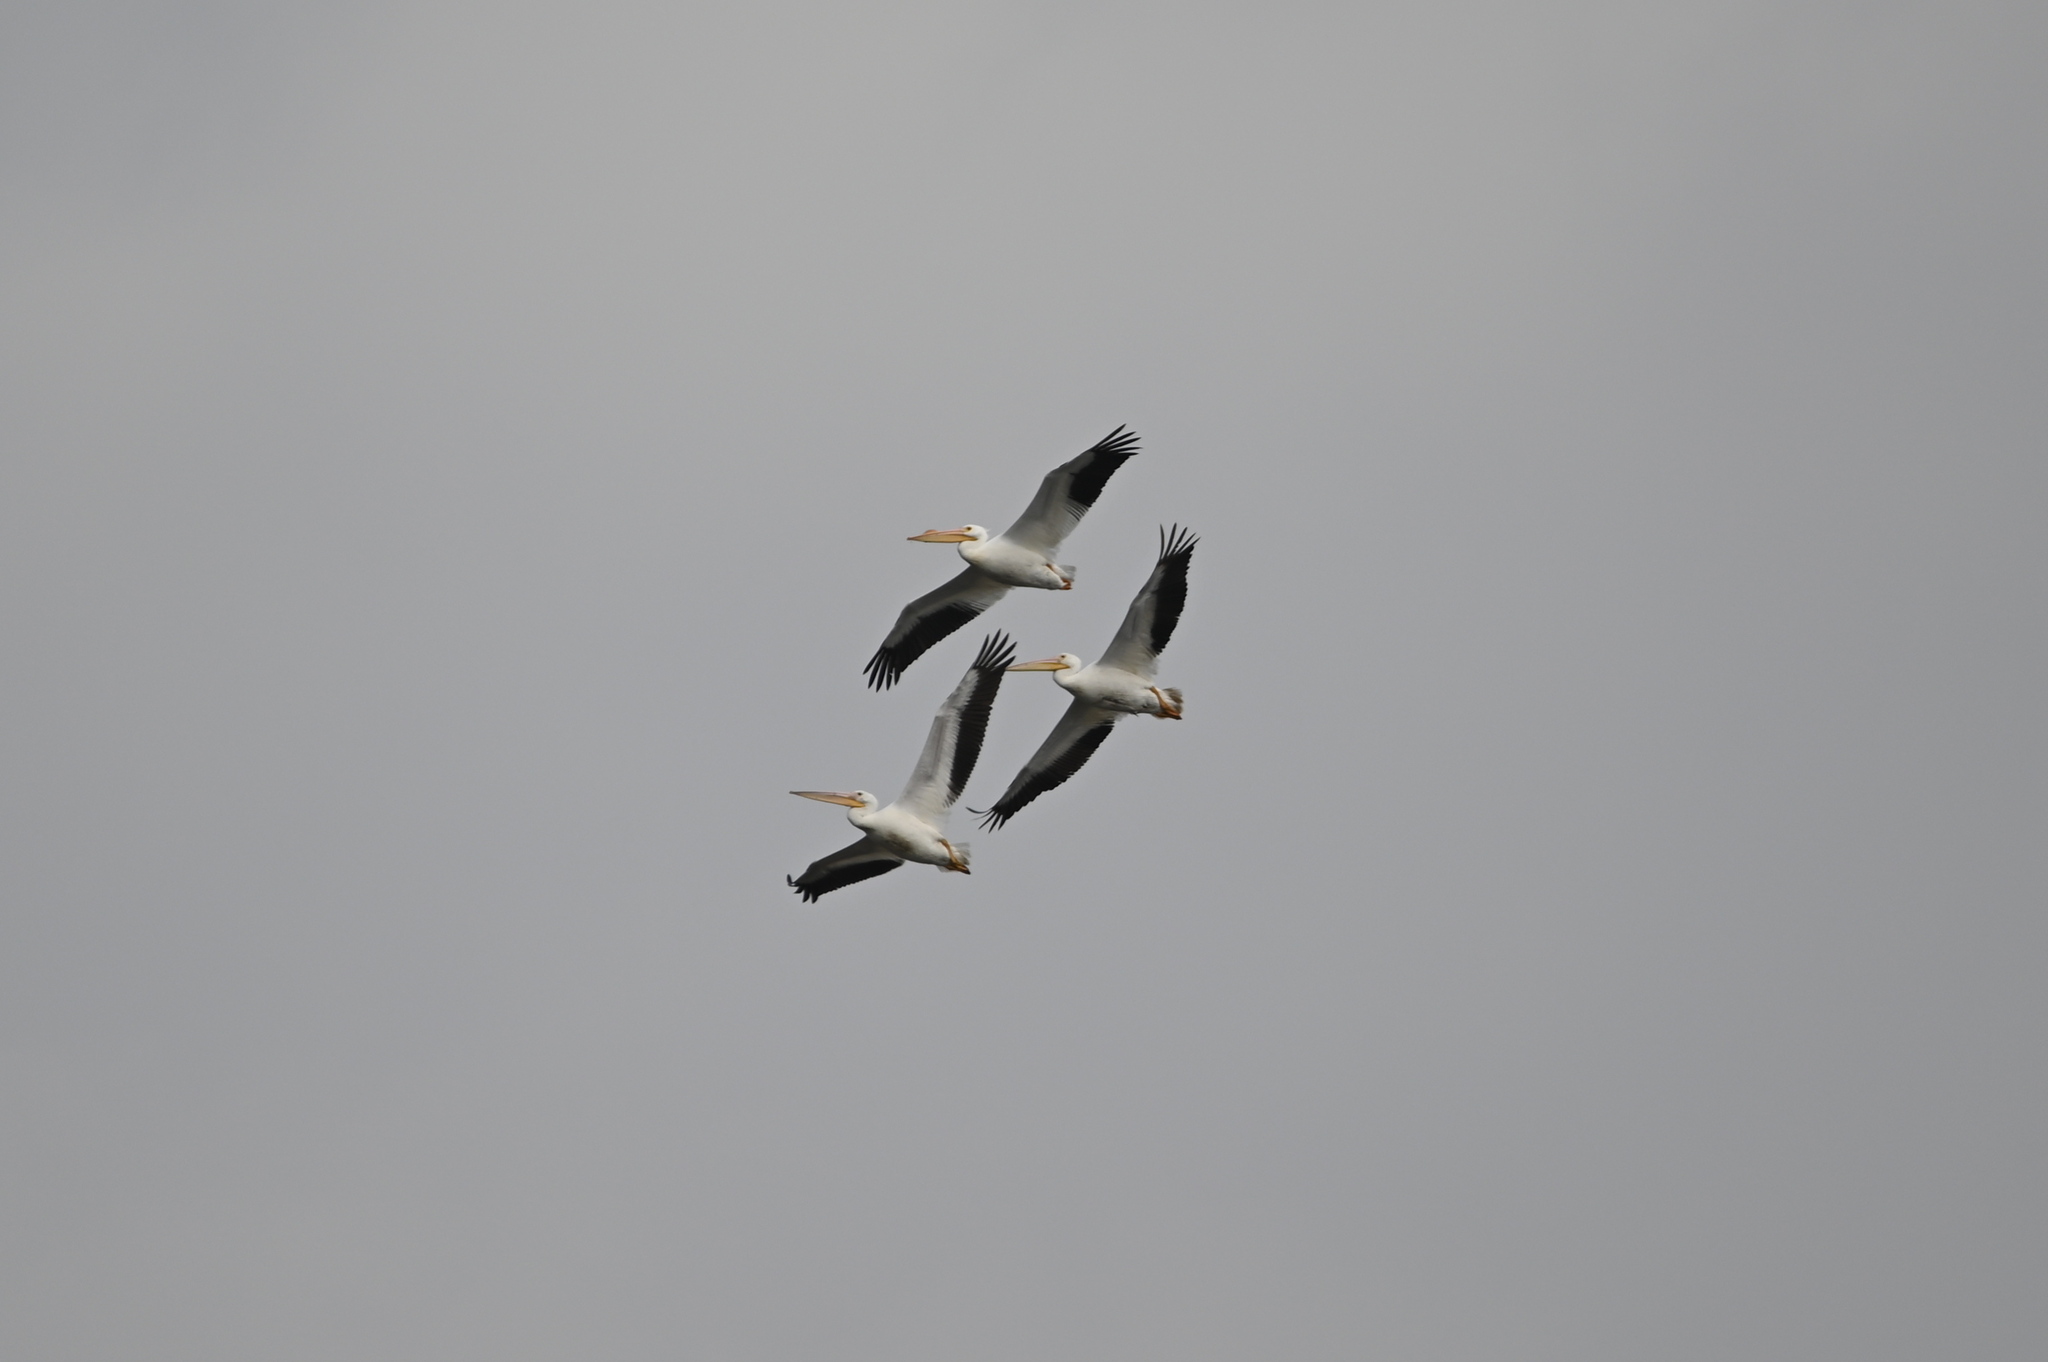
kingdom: Animalia
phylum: Chordata
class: Aves
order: Pelecaniformes
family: Pelecanidae
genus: Pelecanus
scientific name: Pelecanus erythrorhynchos
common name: American white pelican
